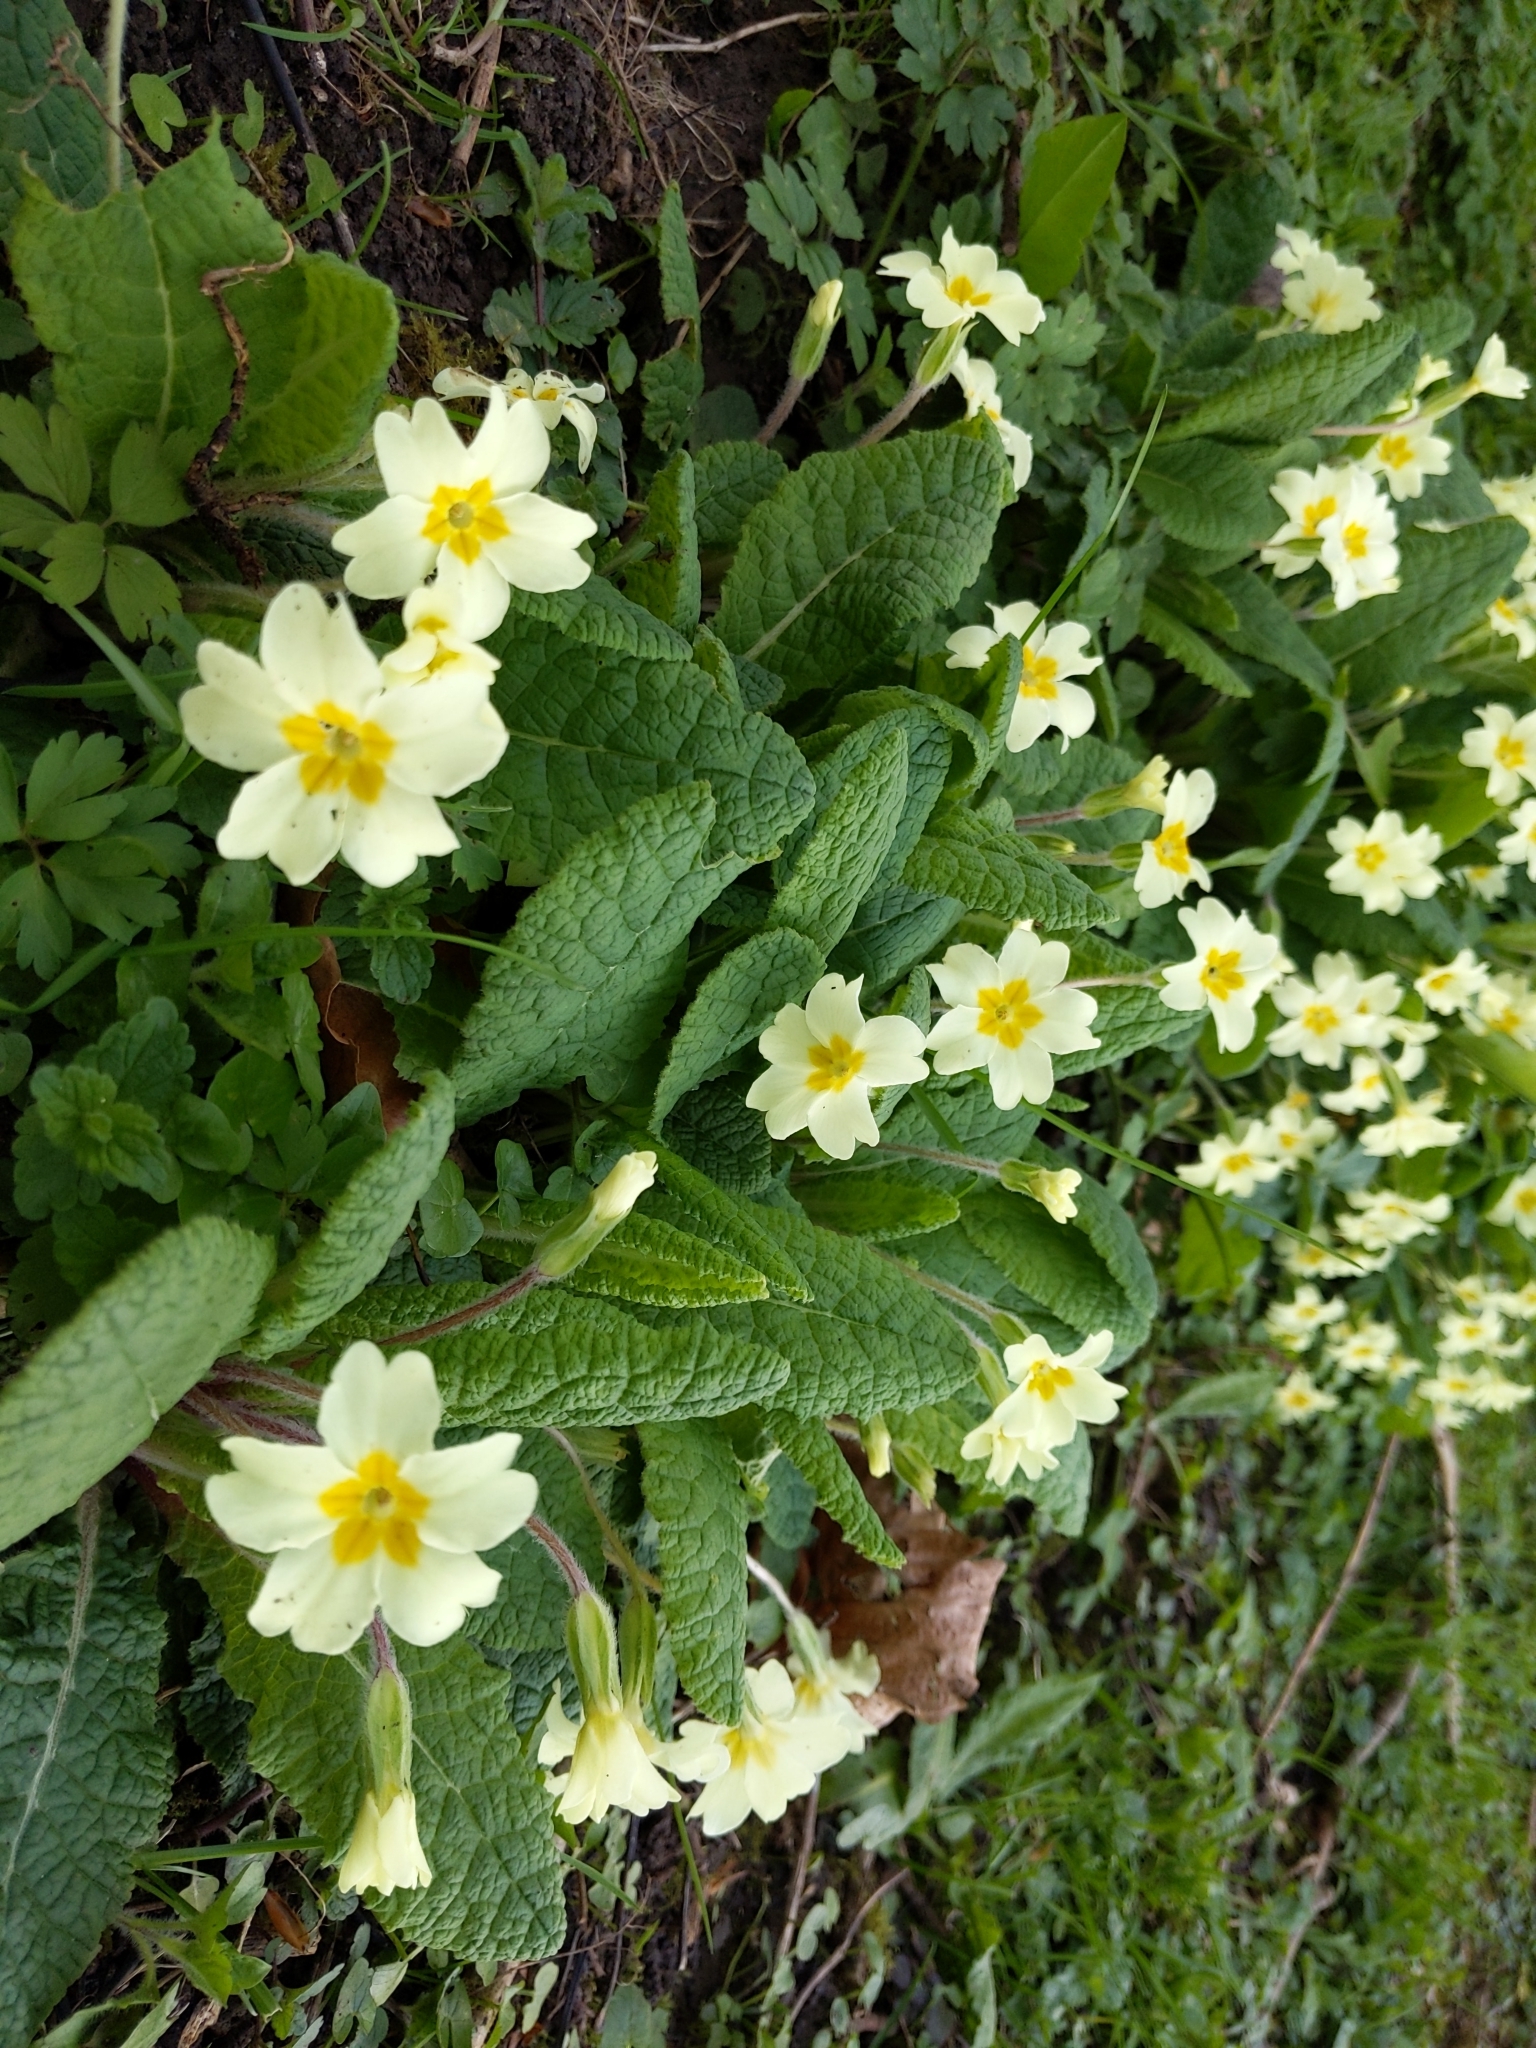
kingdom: Plantae
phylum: Tracheophyta
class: Magnoliopsida
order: Ericales
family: Primulaceae
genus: Primula
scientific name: Primula vulgaris
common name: Primrose
